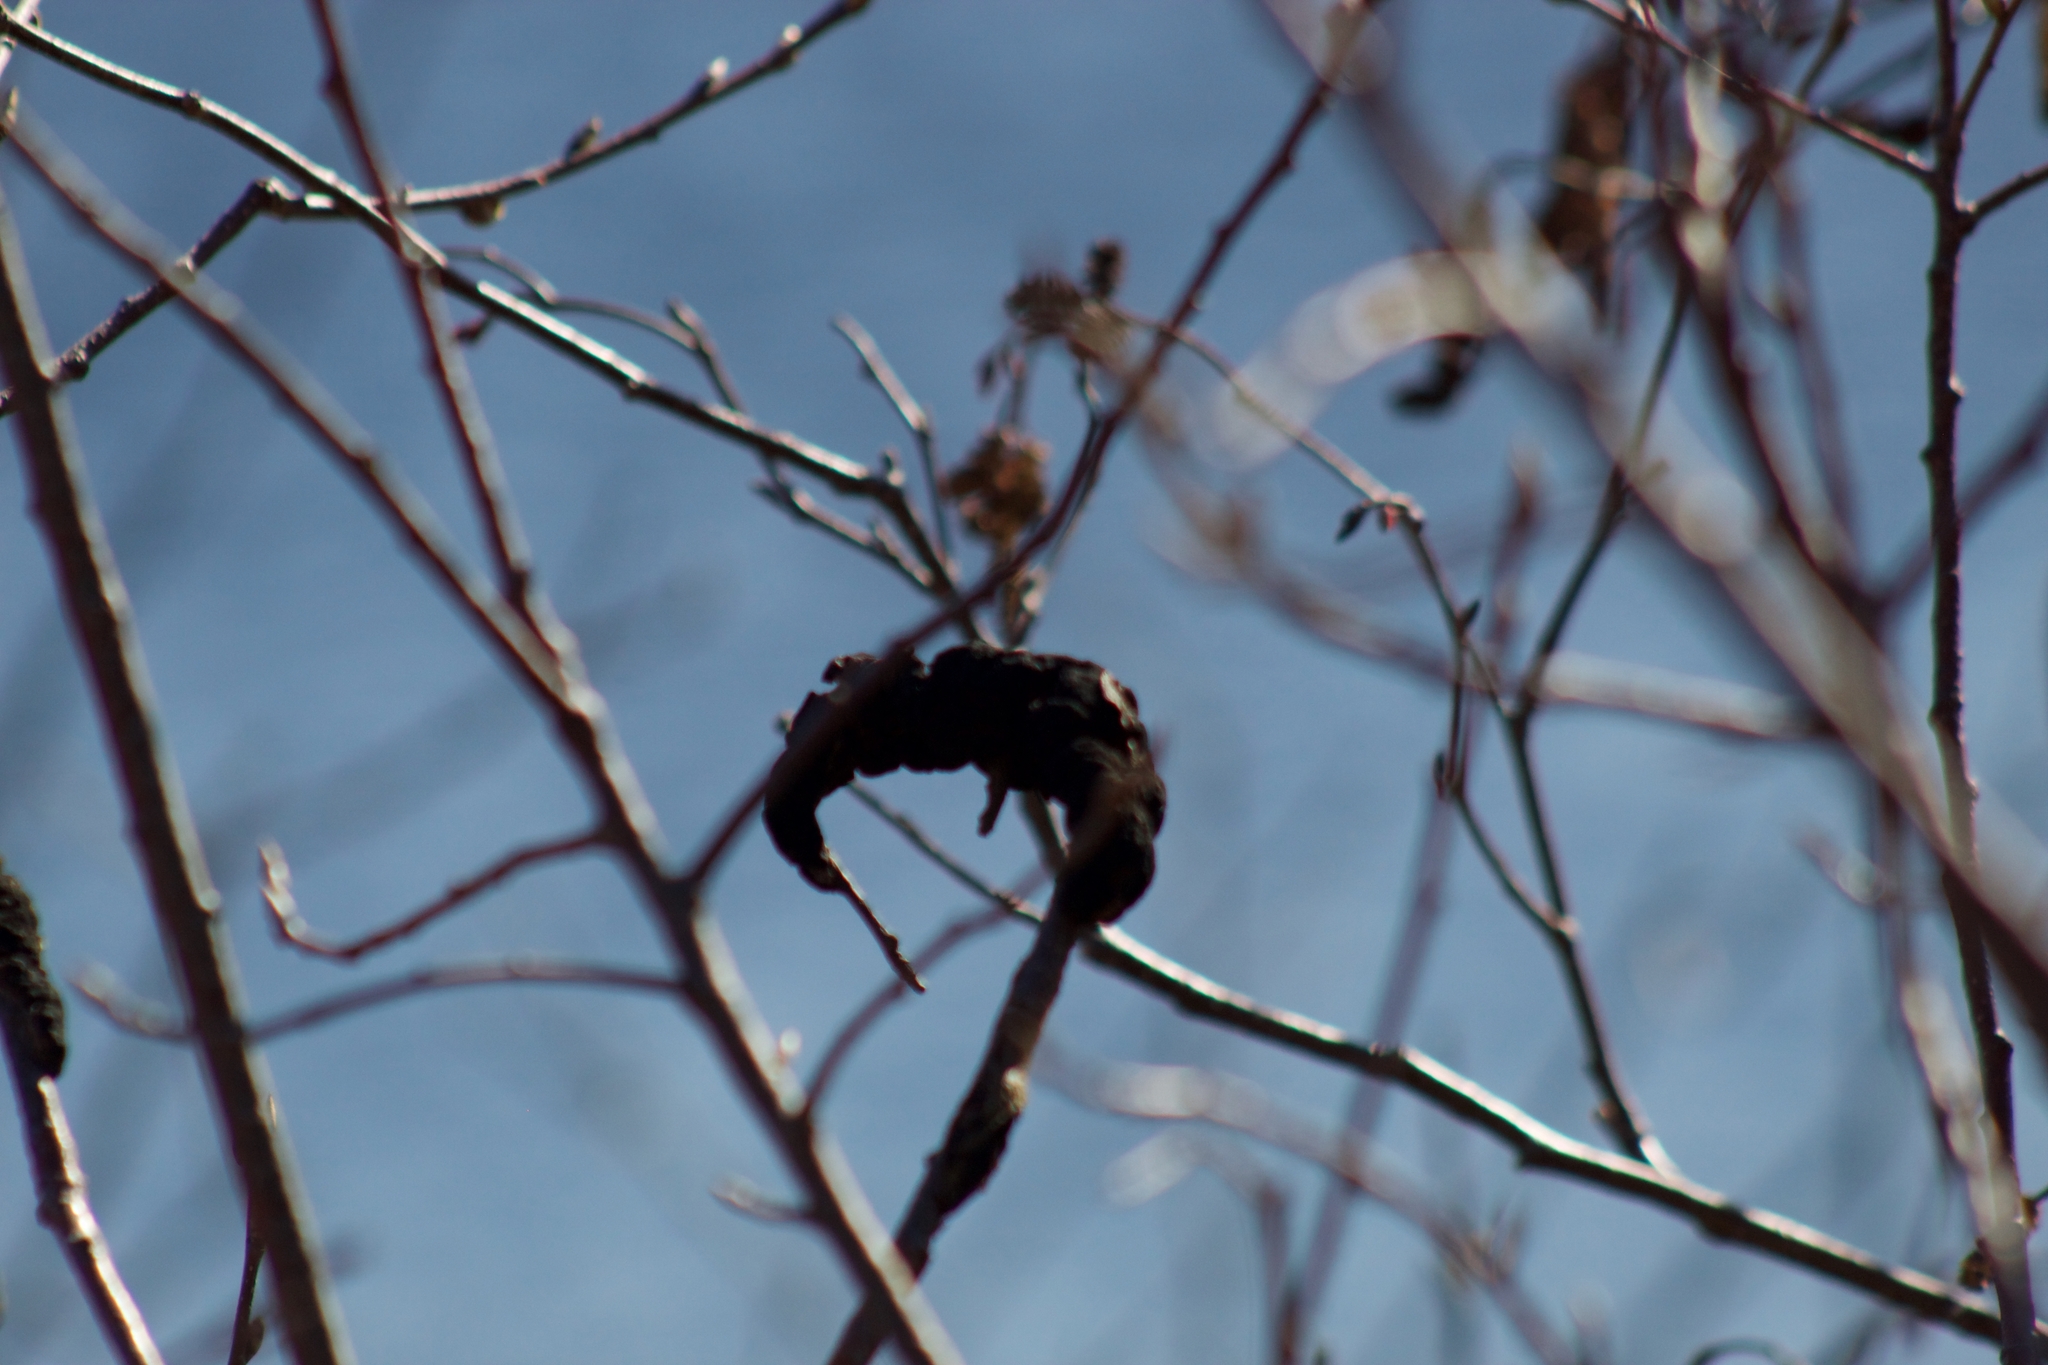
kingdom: Fungi
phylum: Ascomycota
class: Dothideomycetes
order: Venturiales
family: Venturiaceae
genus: Apiosporina
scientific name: Apiosporina morbosa
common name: Black knot
